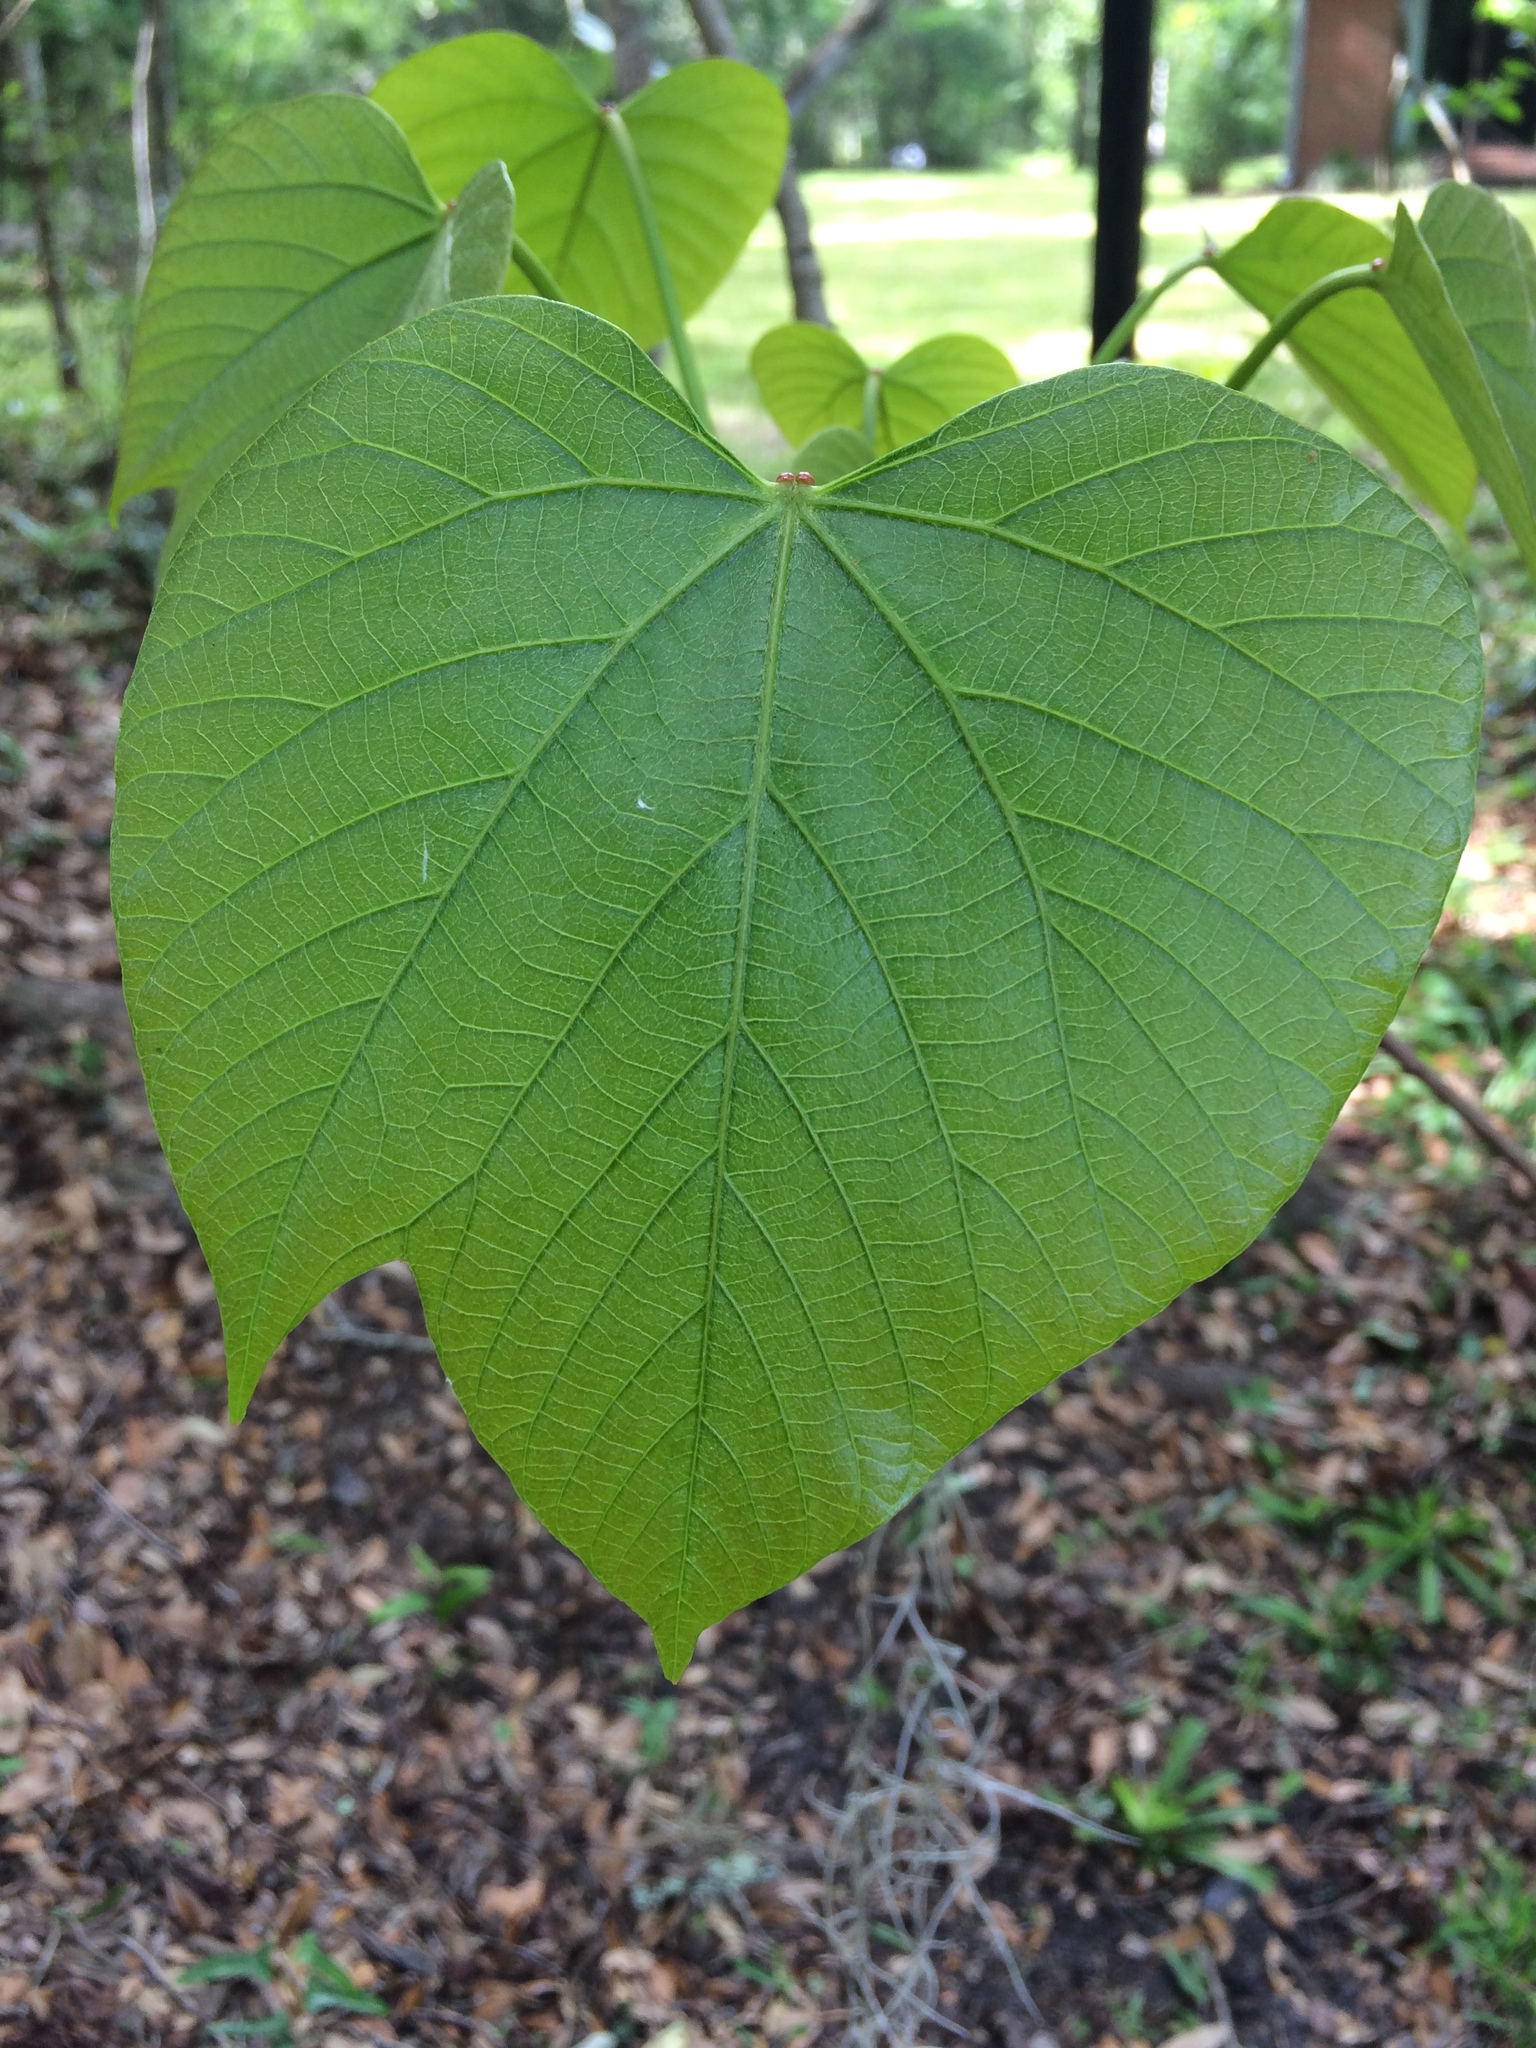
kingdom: Plantae
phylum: Tracheophyta
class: Magnoliopsida
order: Malpighiales
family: Euphorbiaceae
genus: Vernicia
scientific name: Vernicia fordii
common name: Tungoil tree
